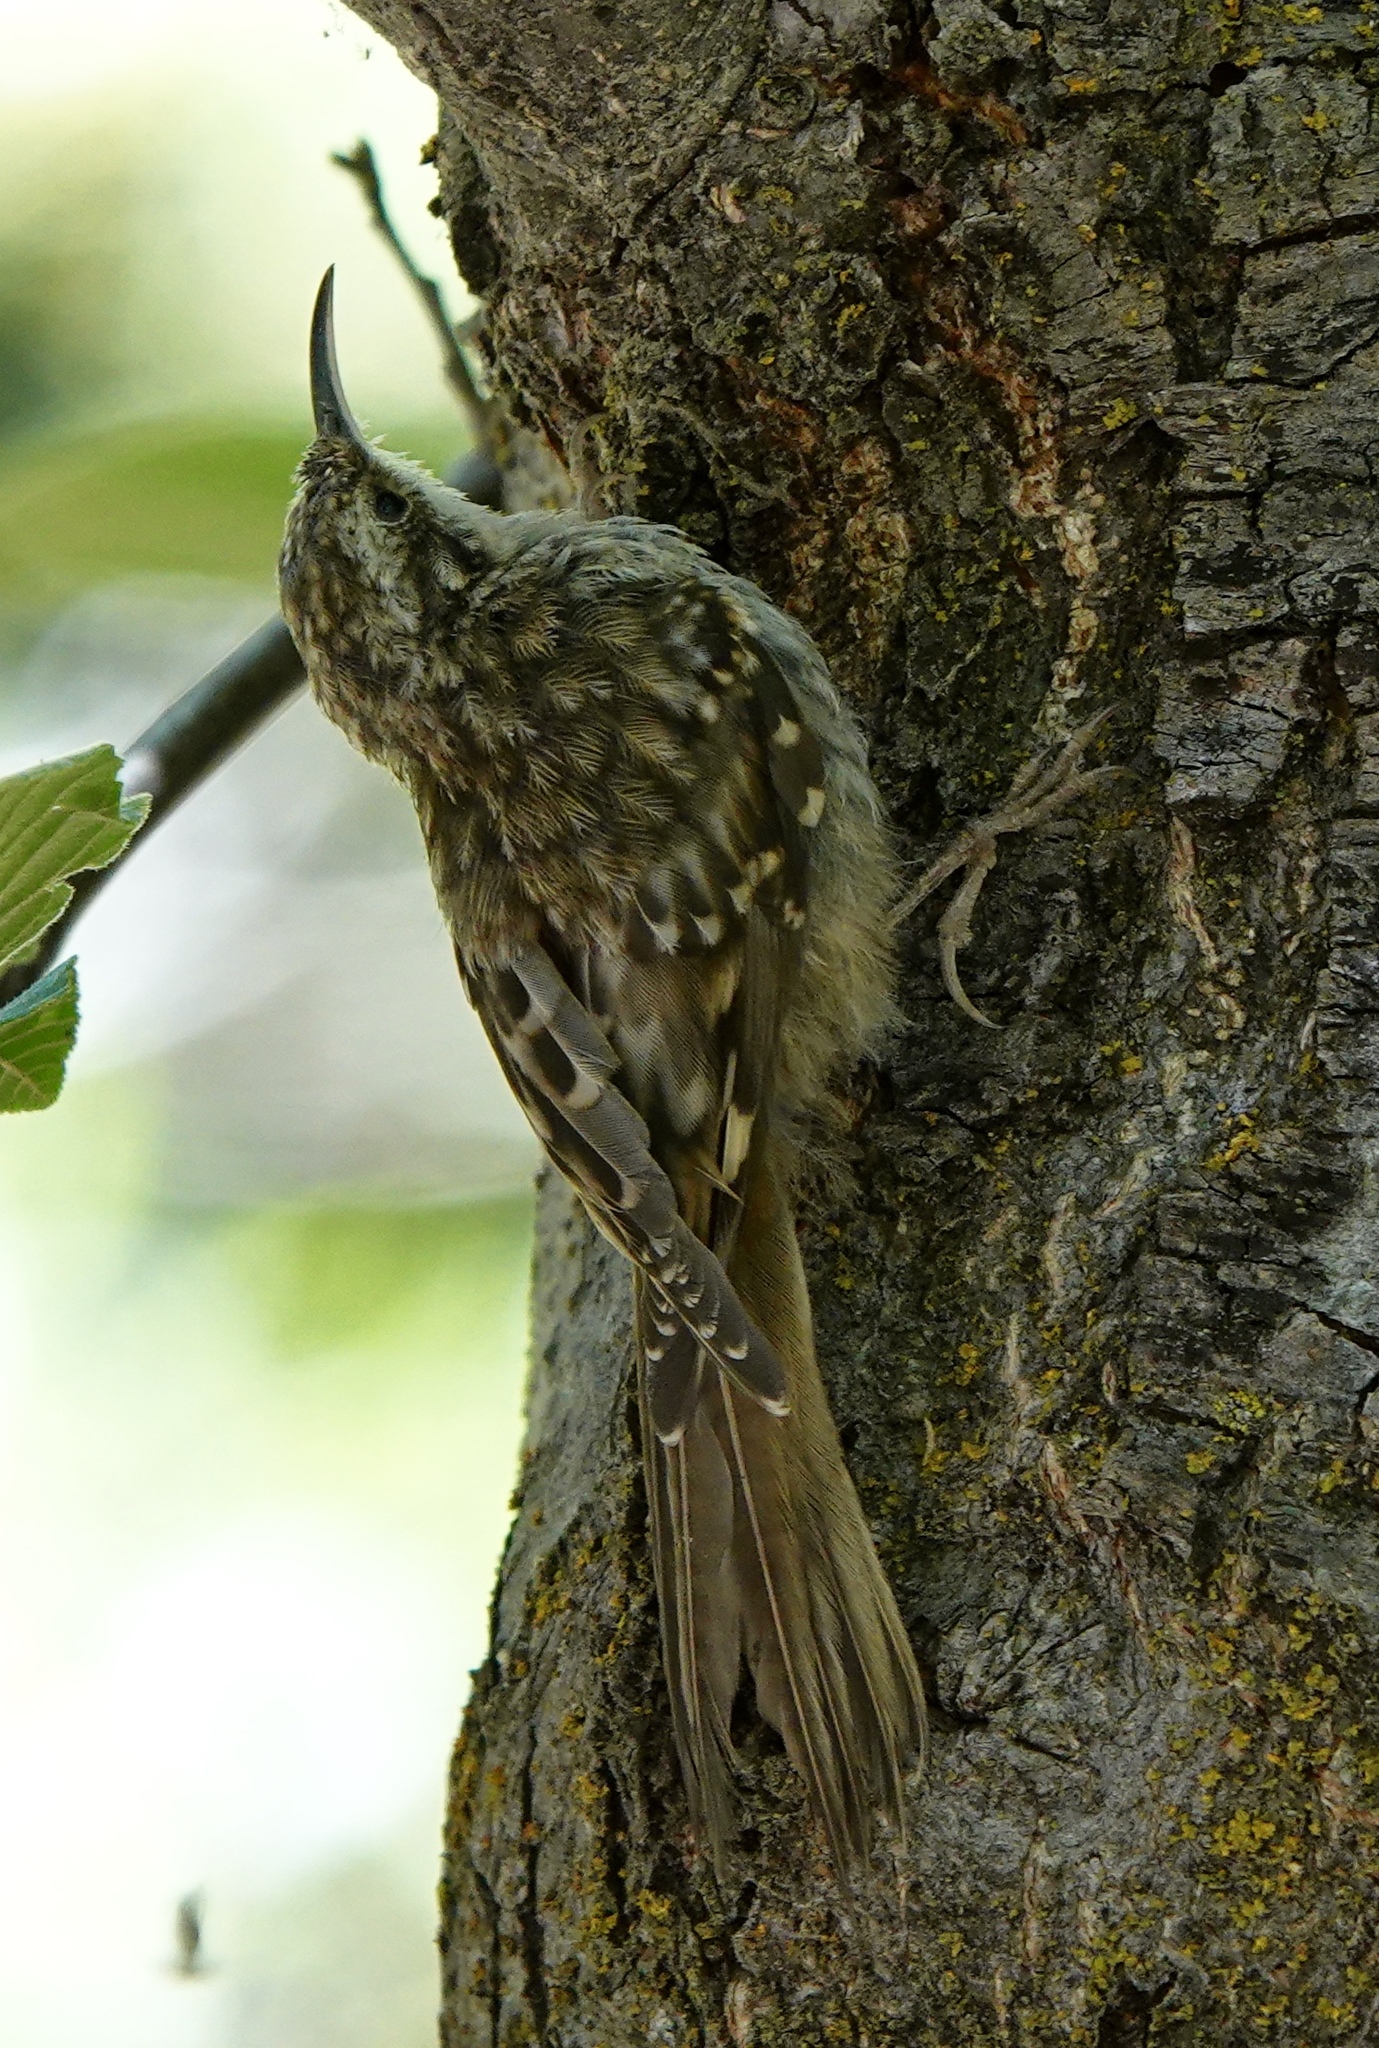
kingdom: Animalia
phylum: Chordata
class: Aves
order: Passeriformes
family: Certhiidae
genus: Certhia
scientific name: Certhia americana
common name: Brown creeper
